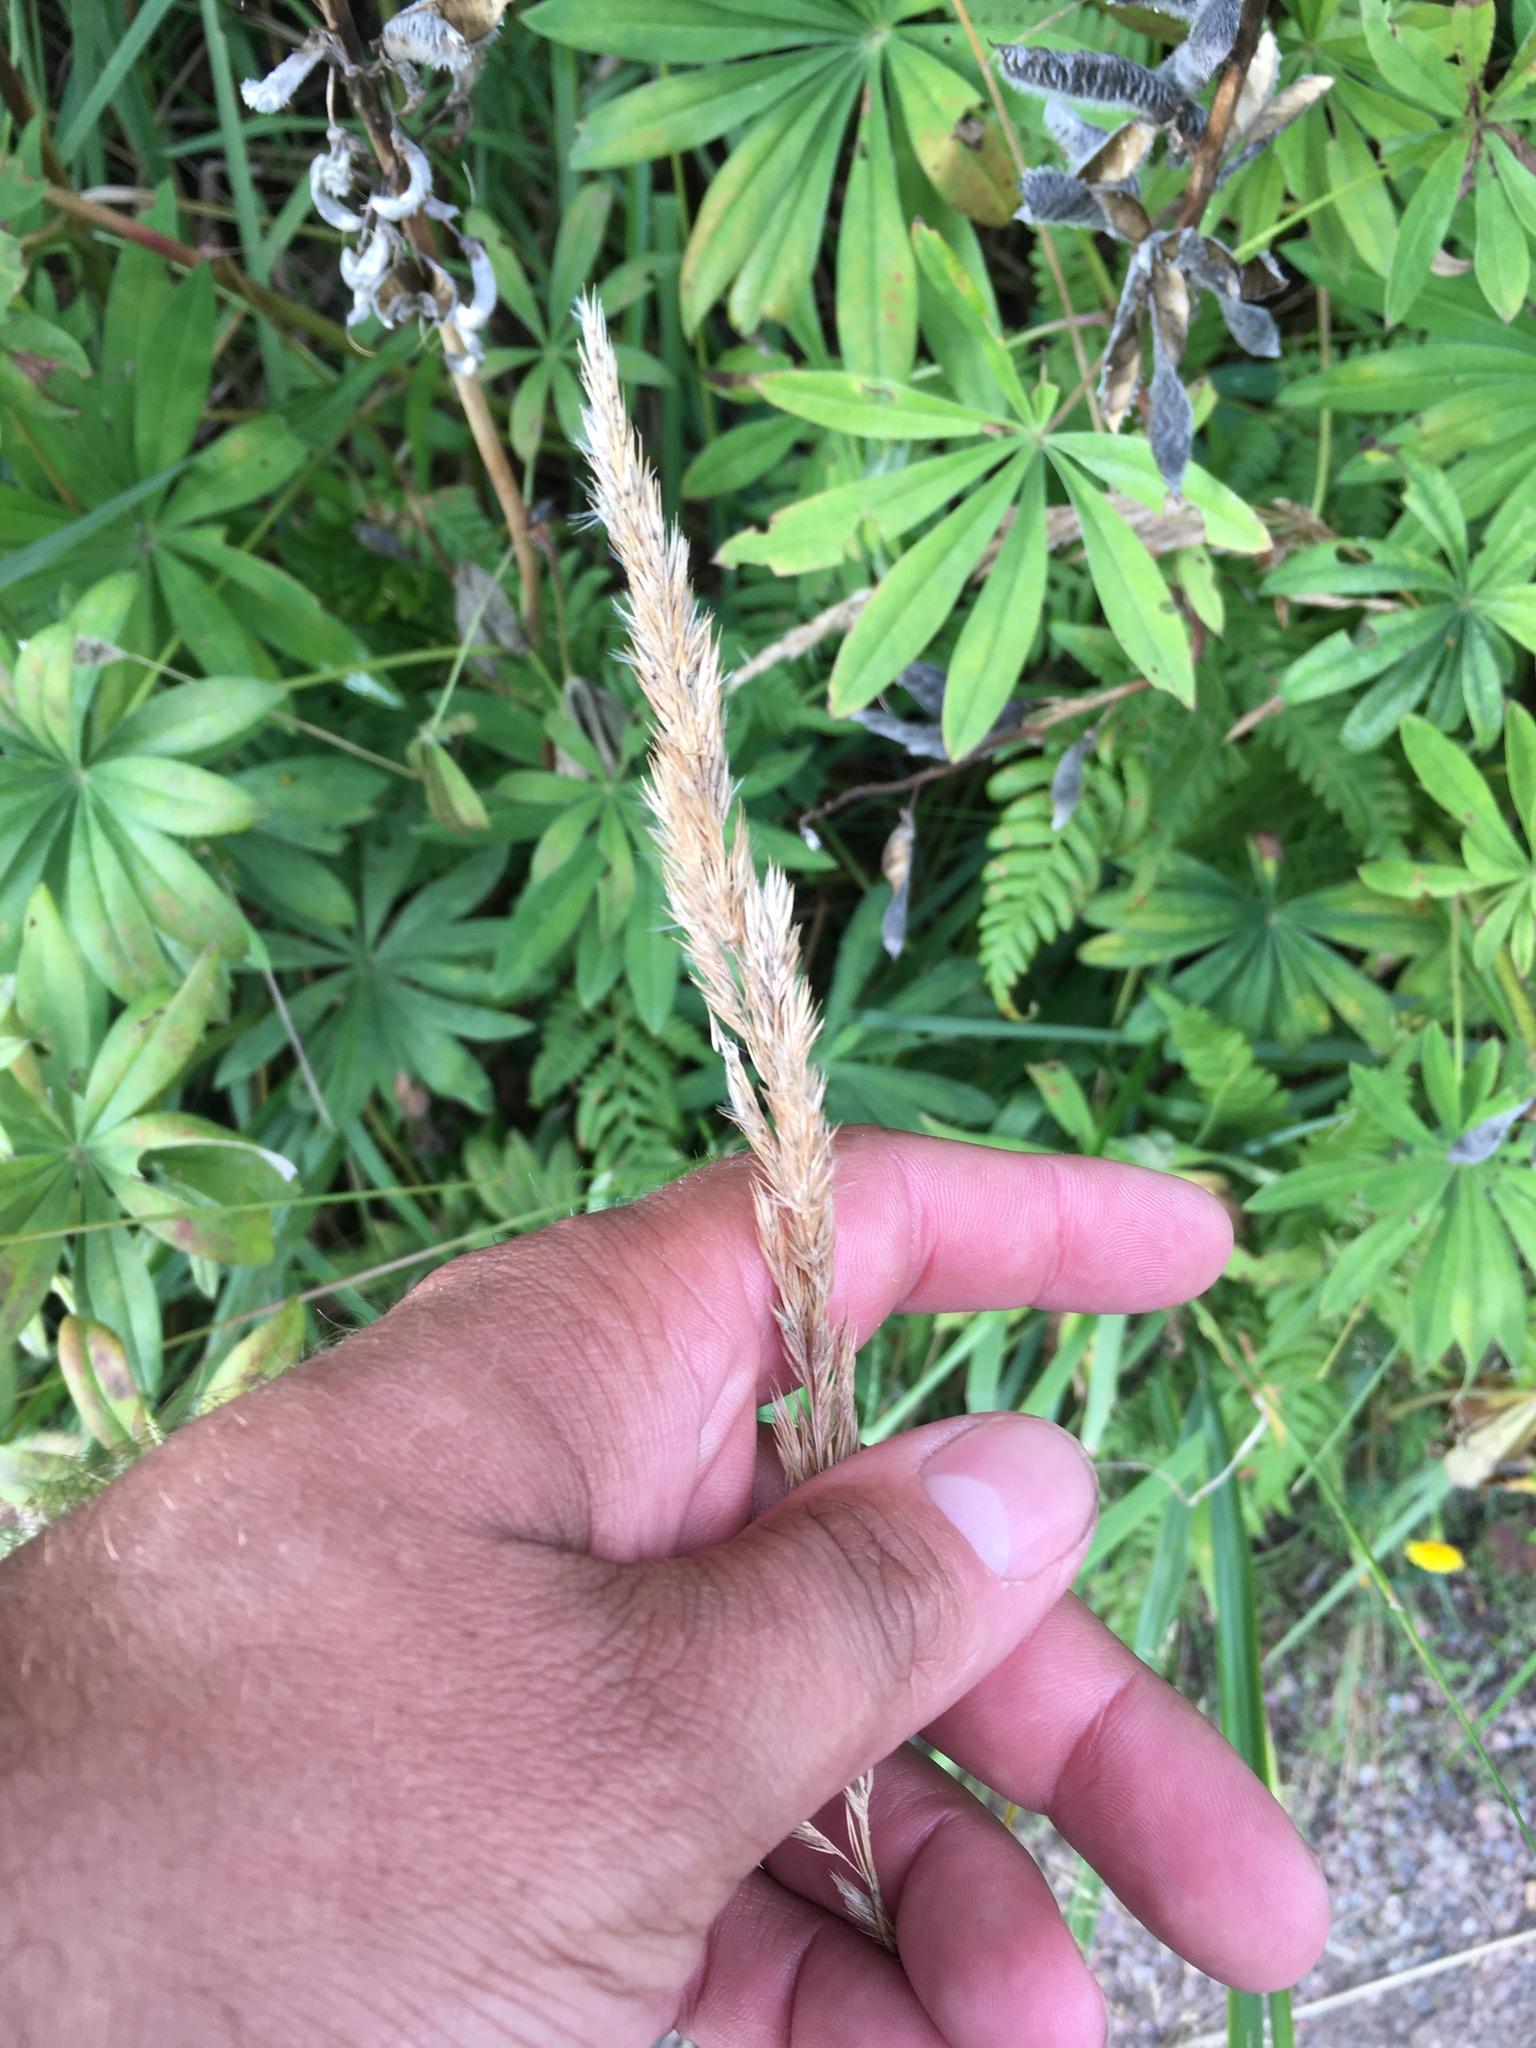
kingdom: Plantae
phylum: Tracheophyta
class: Liliopsida
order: Poales
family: Poaceae
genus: Calamagrostis
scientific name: Calamagrostis epigejos
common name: Wood small-reed
